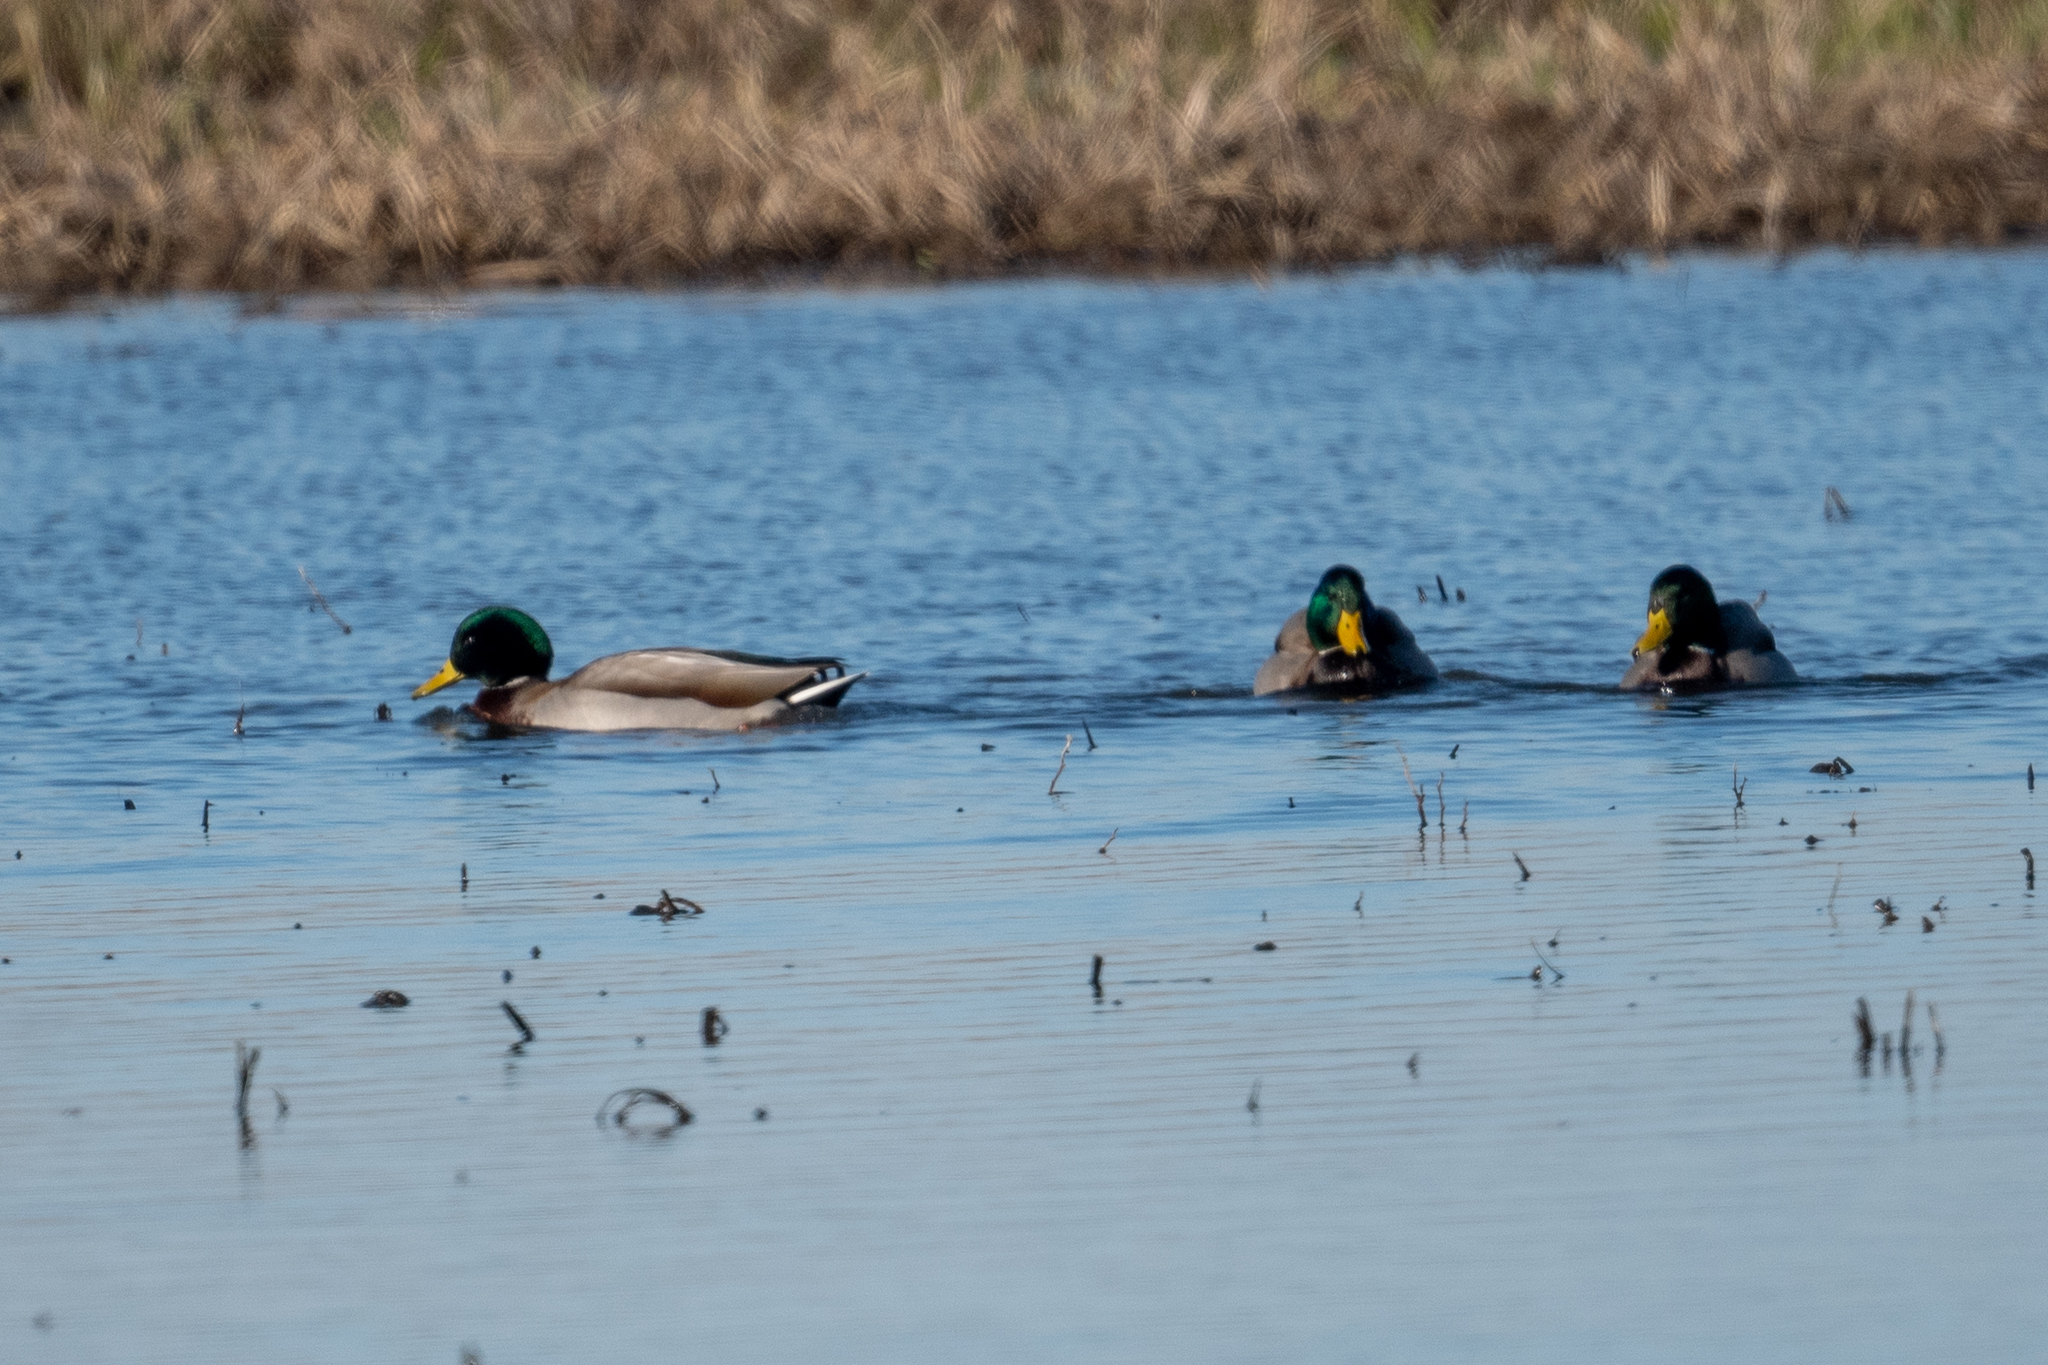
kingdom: Animalia
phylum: Chordata
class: Aves
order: Anseriformes
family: Anatidae
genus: Anas
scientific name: Anas platyrhynchos
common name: Mallard
